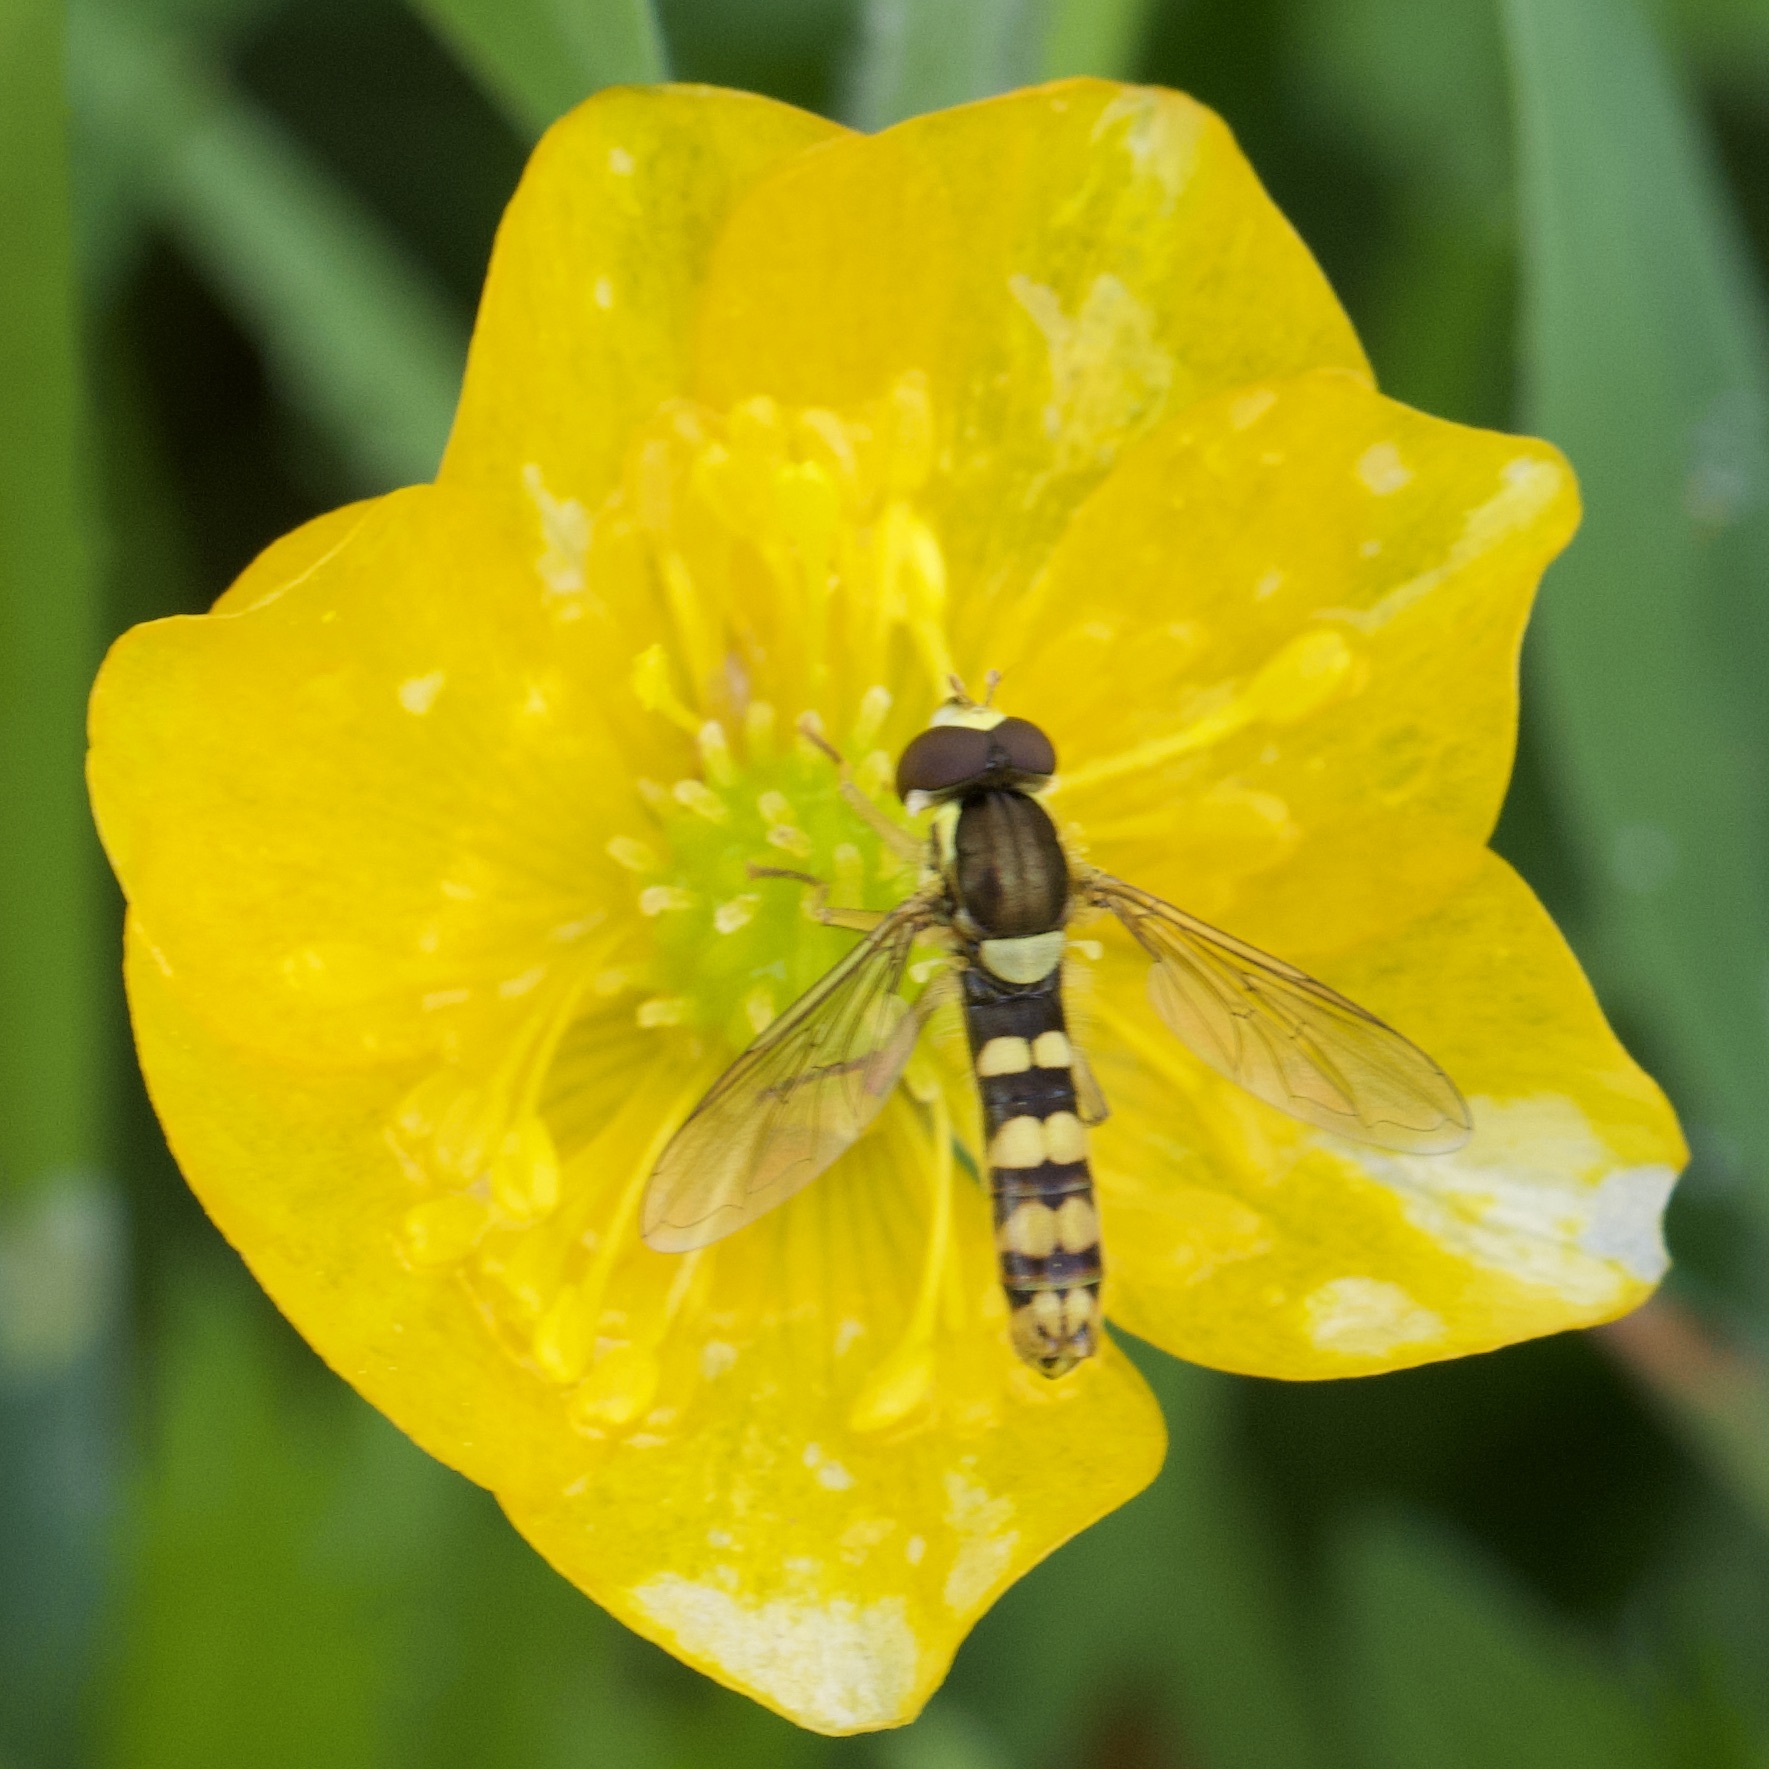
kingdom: Animalia
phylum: Arthropoda
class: Insecta
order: Diptera
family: Syrphidae
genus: Sphaerophoria
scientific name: Sphaerophoria
